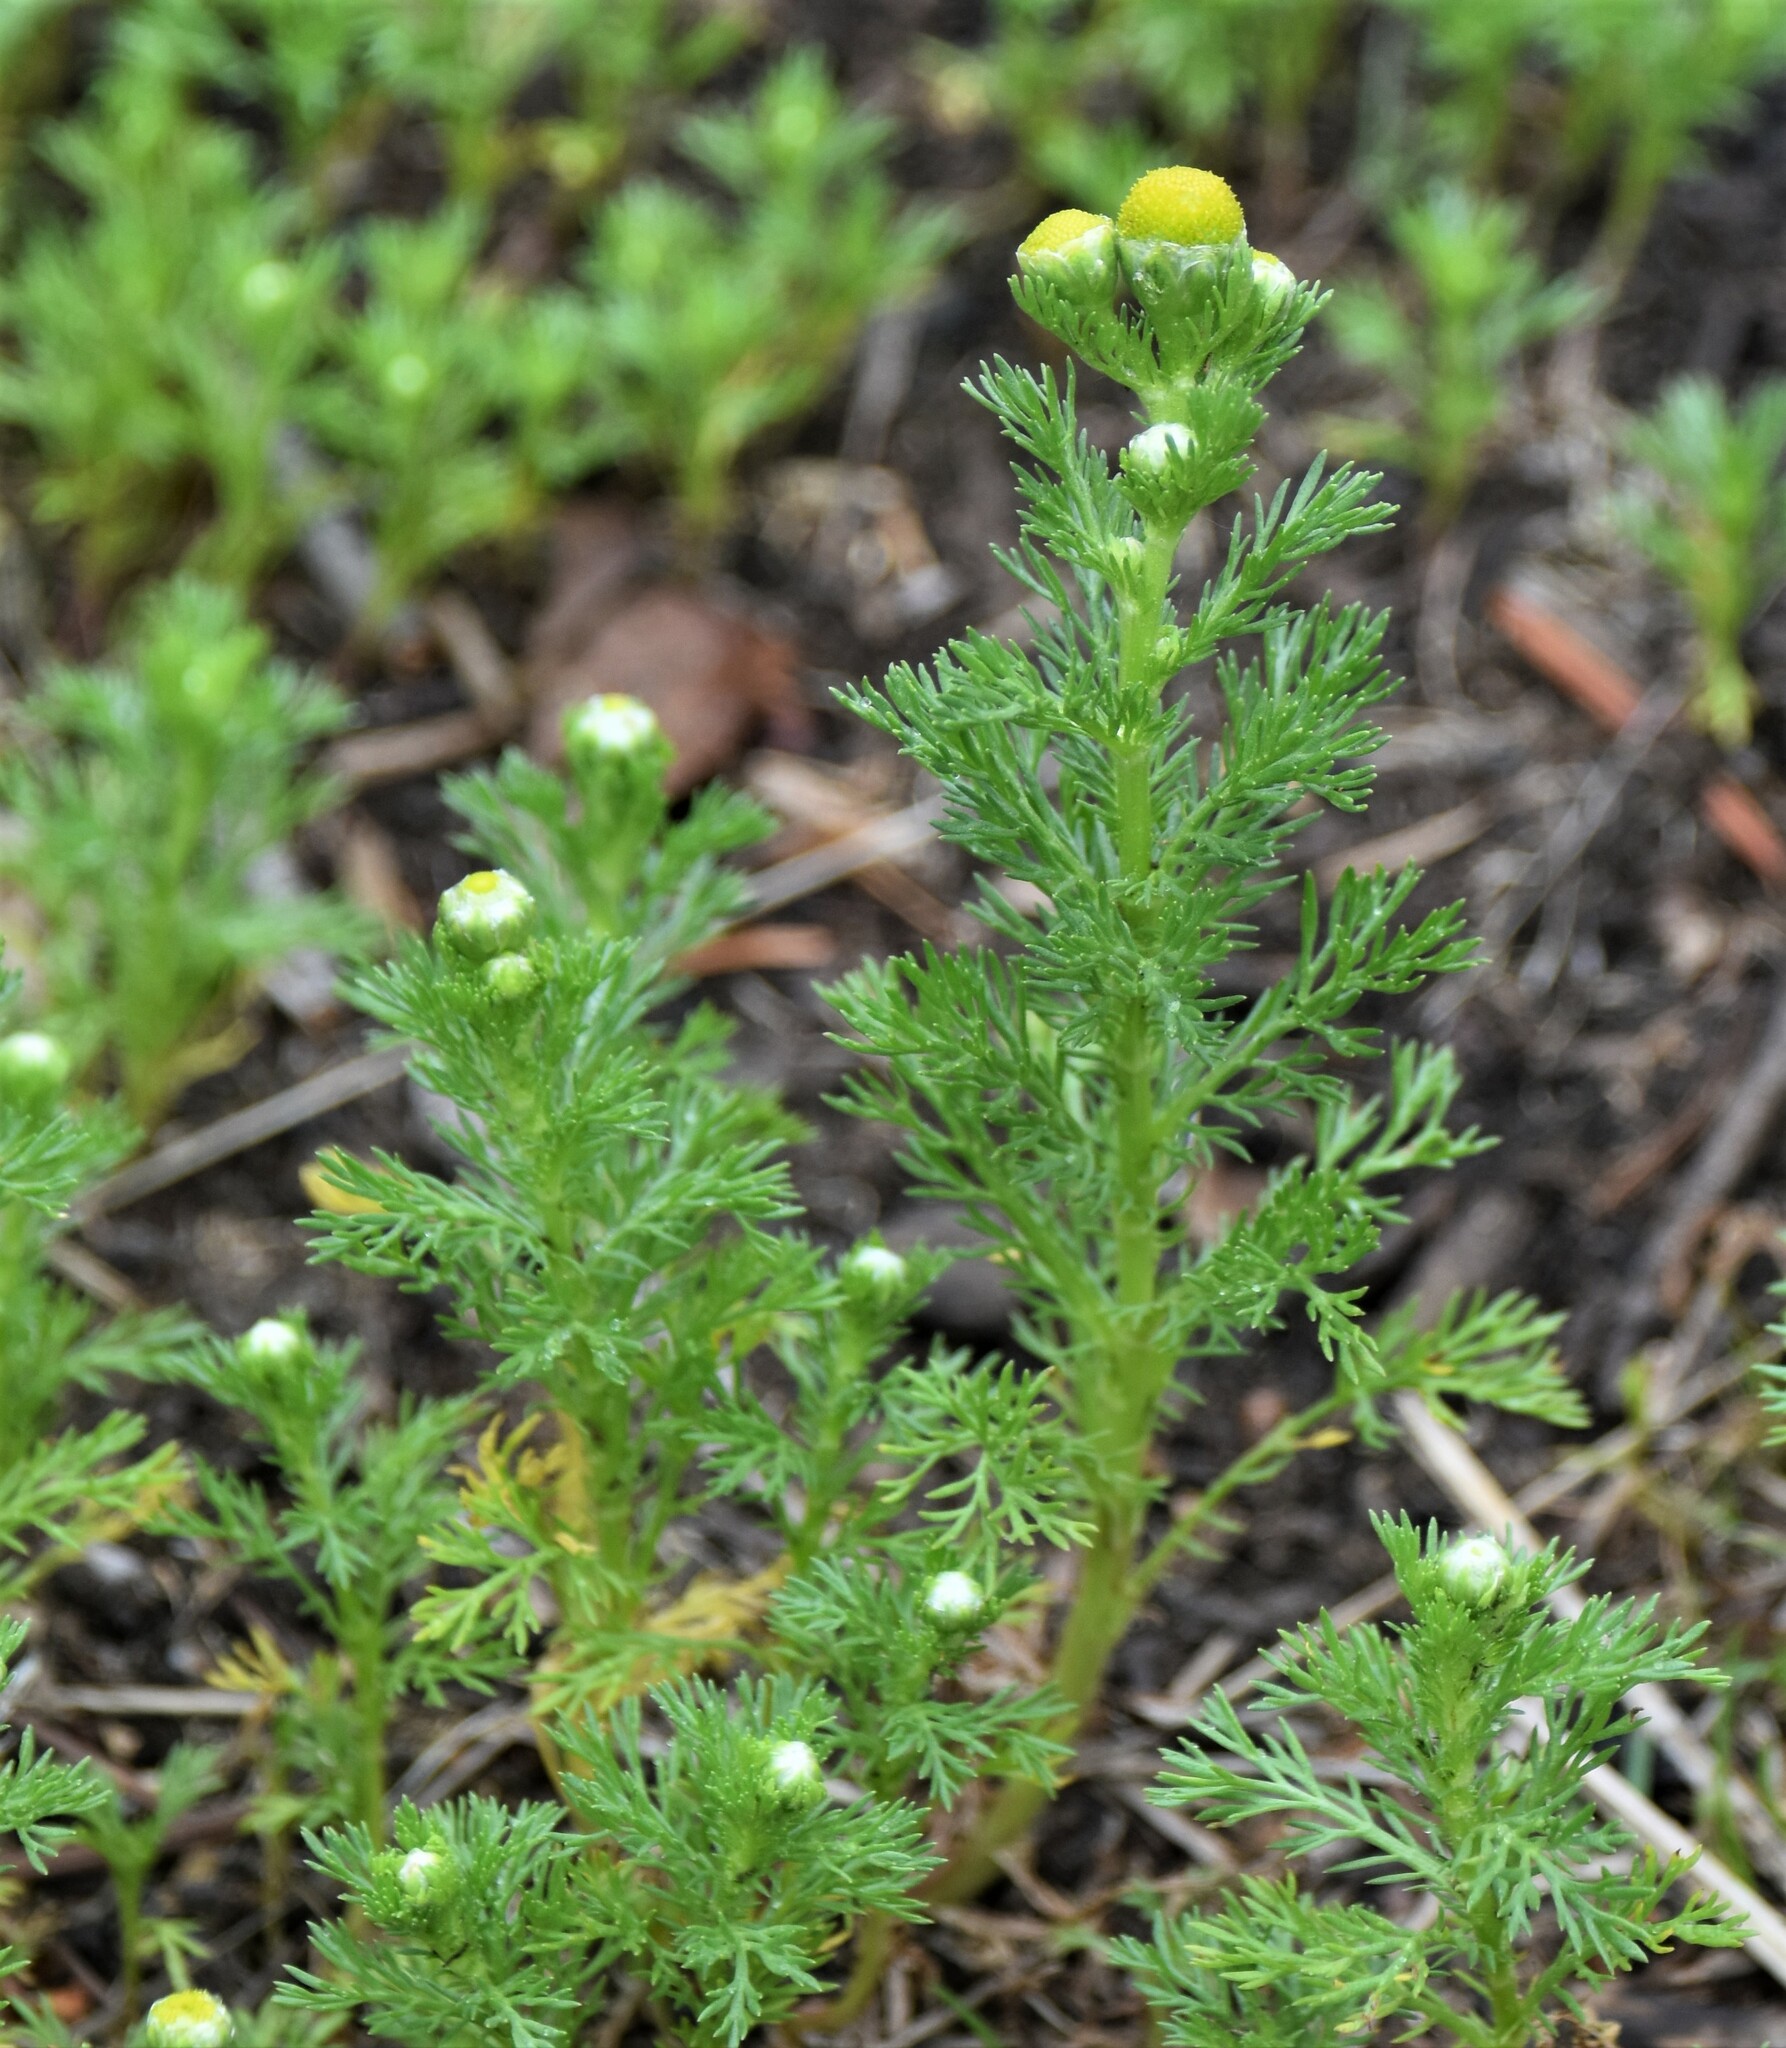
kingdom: Plantae
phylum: Tracheophyta
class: Magnoliopsida
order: Asterales
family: Asteraceae
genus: Matricaria
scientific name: Matricaria discoidea
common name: Disc mayweed
